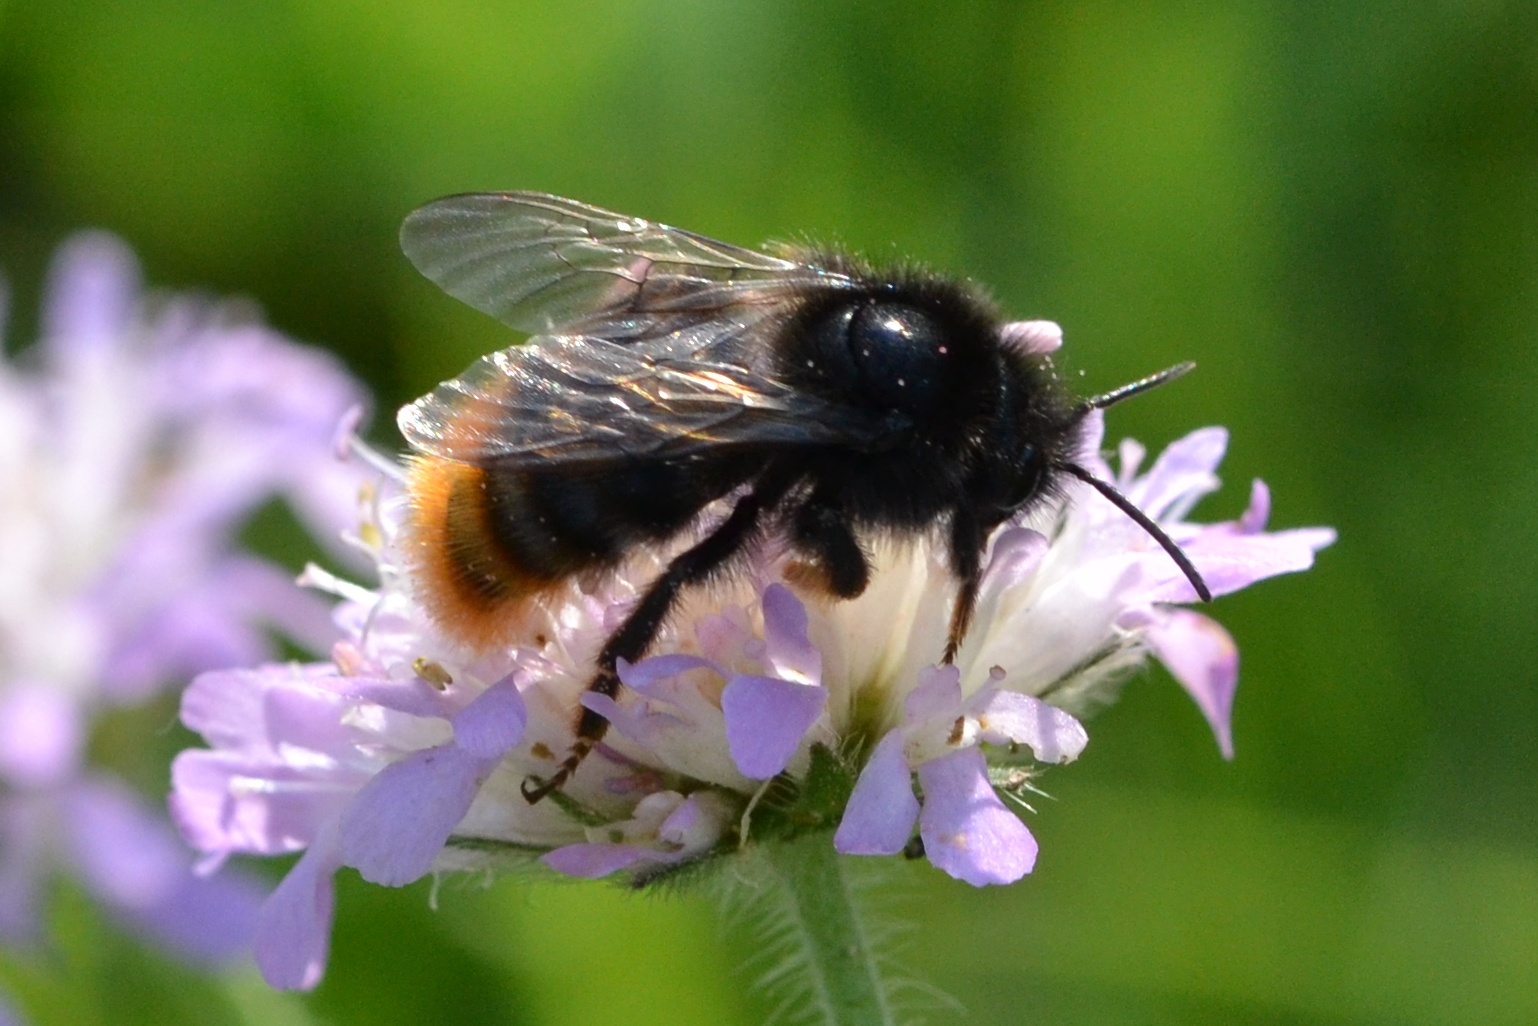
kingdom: Animalia
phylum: Arthropoda
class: Insecta
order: Hymenoptera
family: Apidae
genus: Bombus
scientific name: Bombus rupestris
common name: Hill cuckoo-bee
